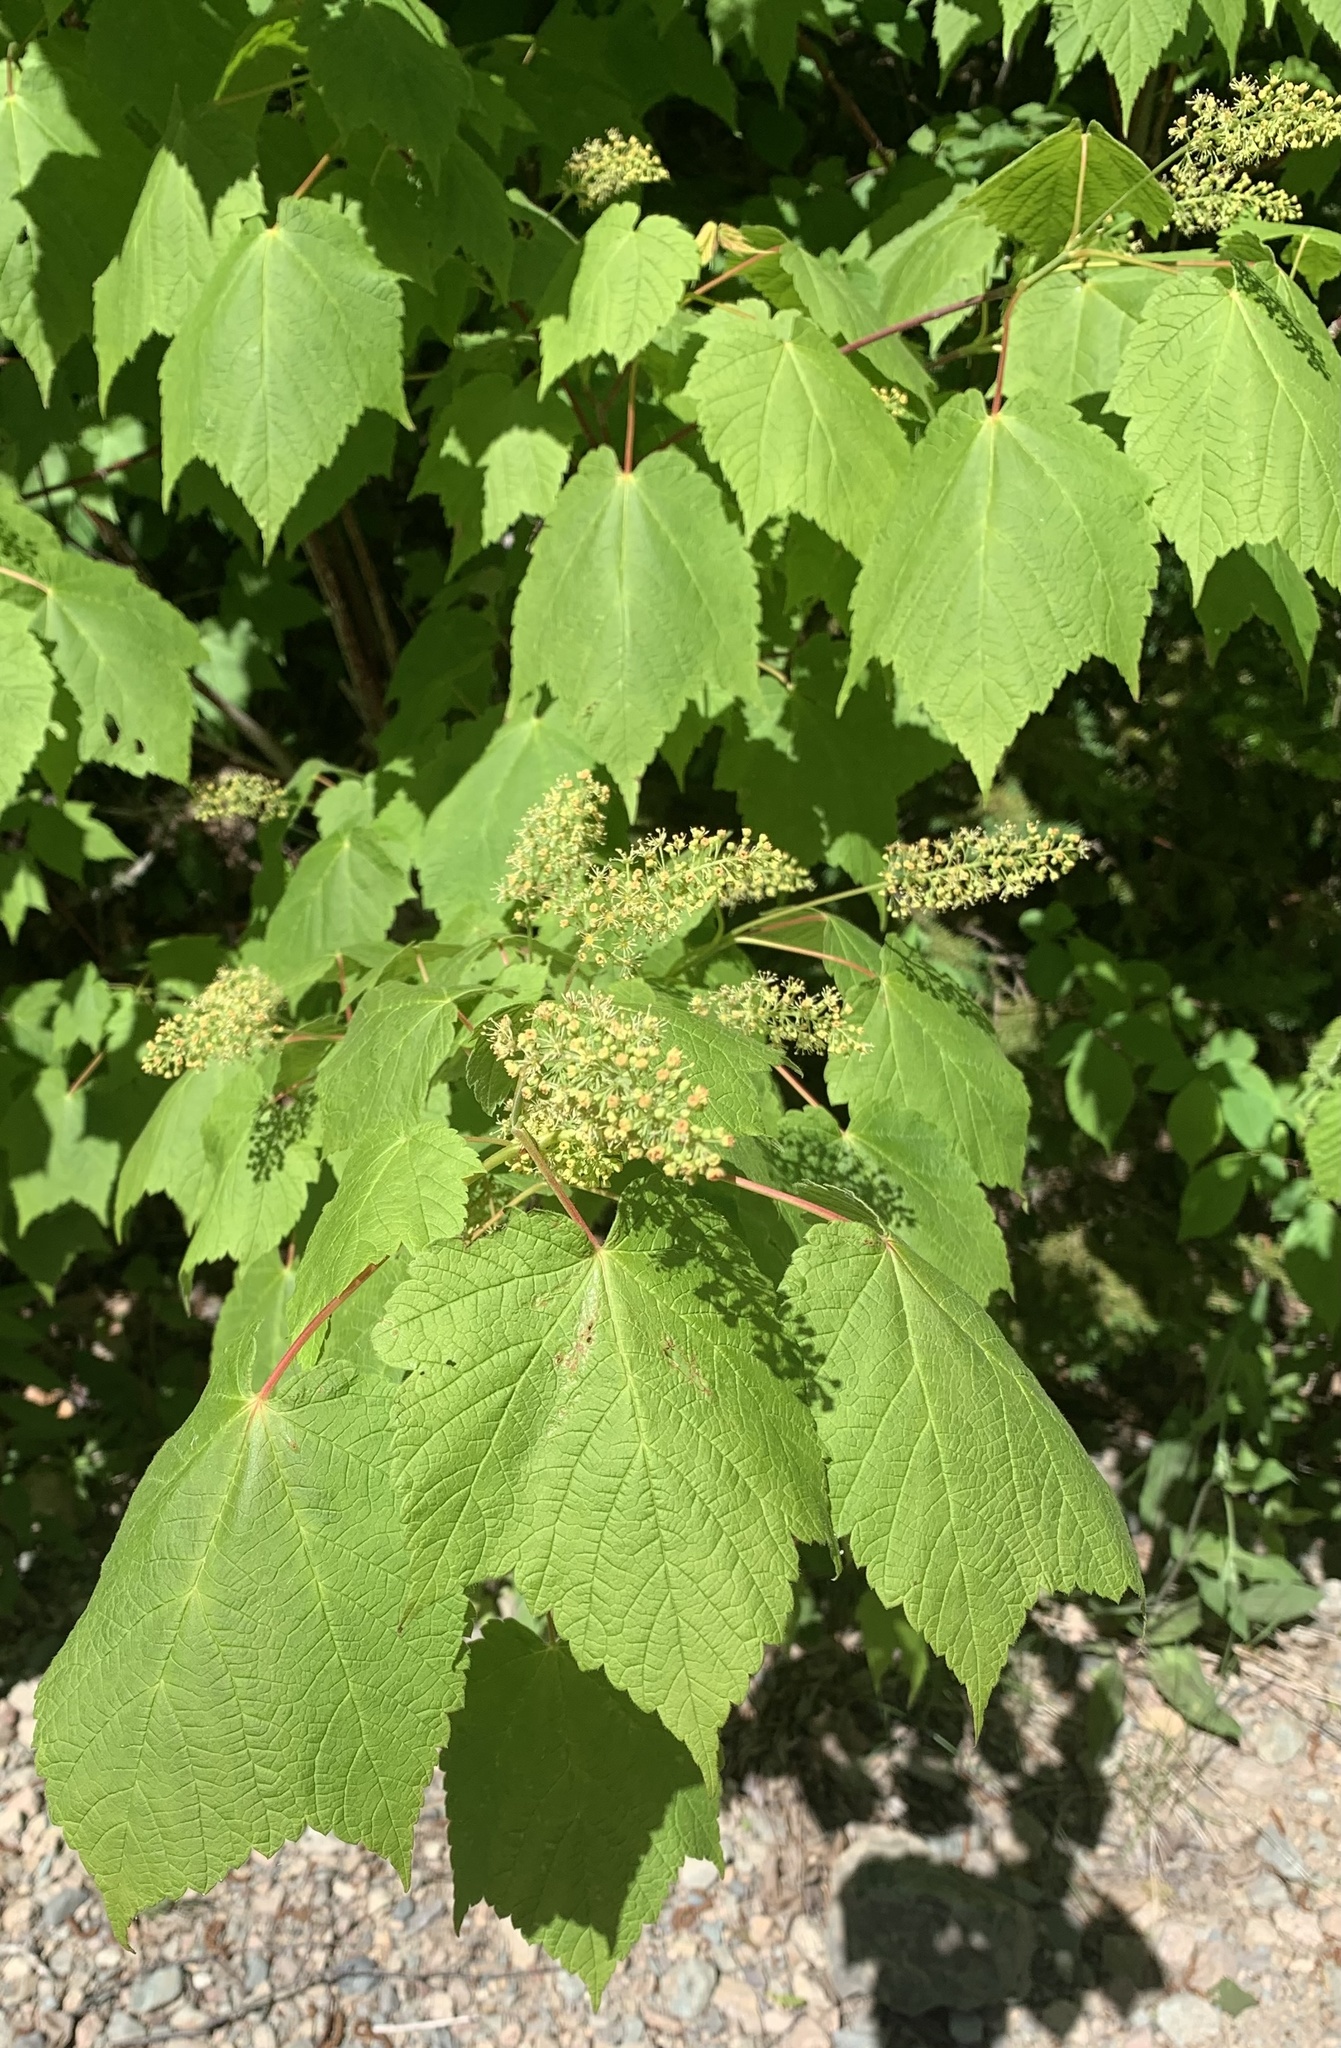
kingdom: Plantae
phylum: Tracheophyta
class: Magnoliopsida
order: Sapindales
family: Sapindaceae
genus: Acer
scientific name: Acer spicatum
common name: Mountain maple
